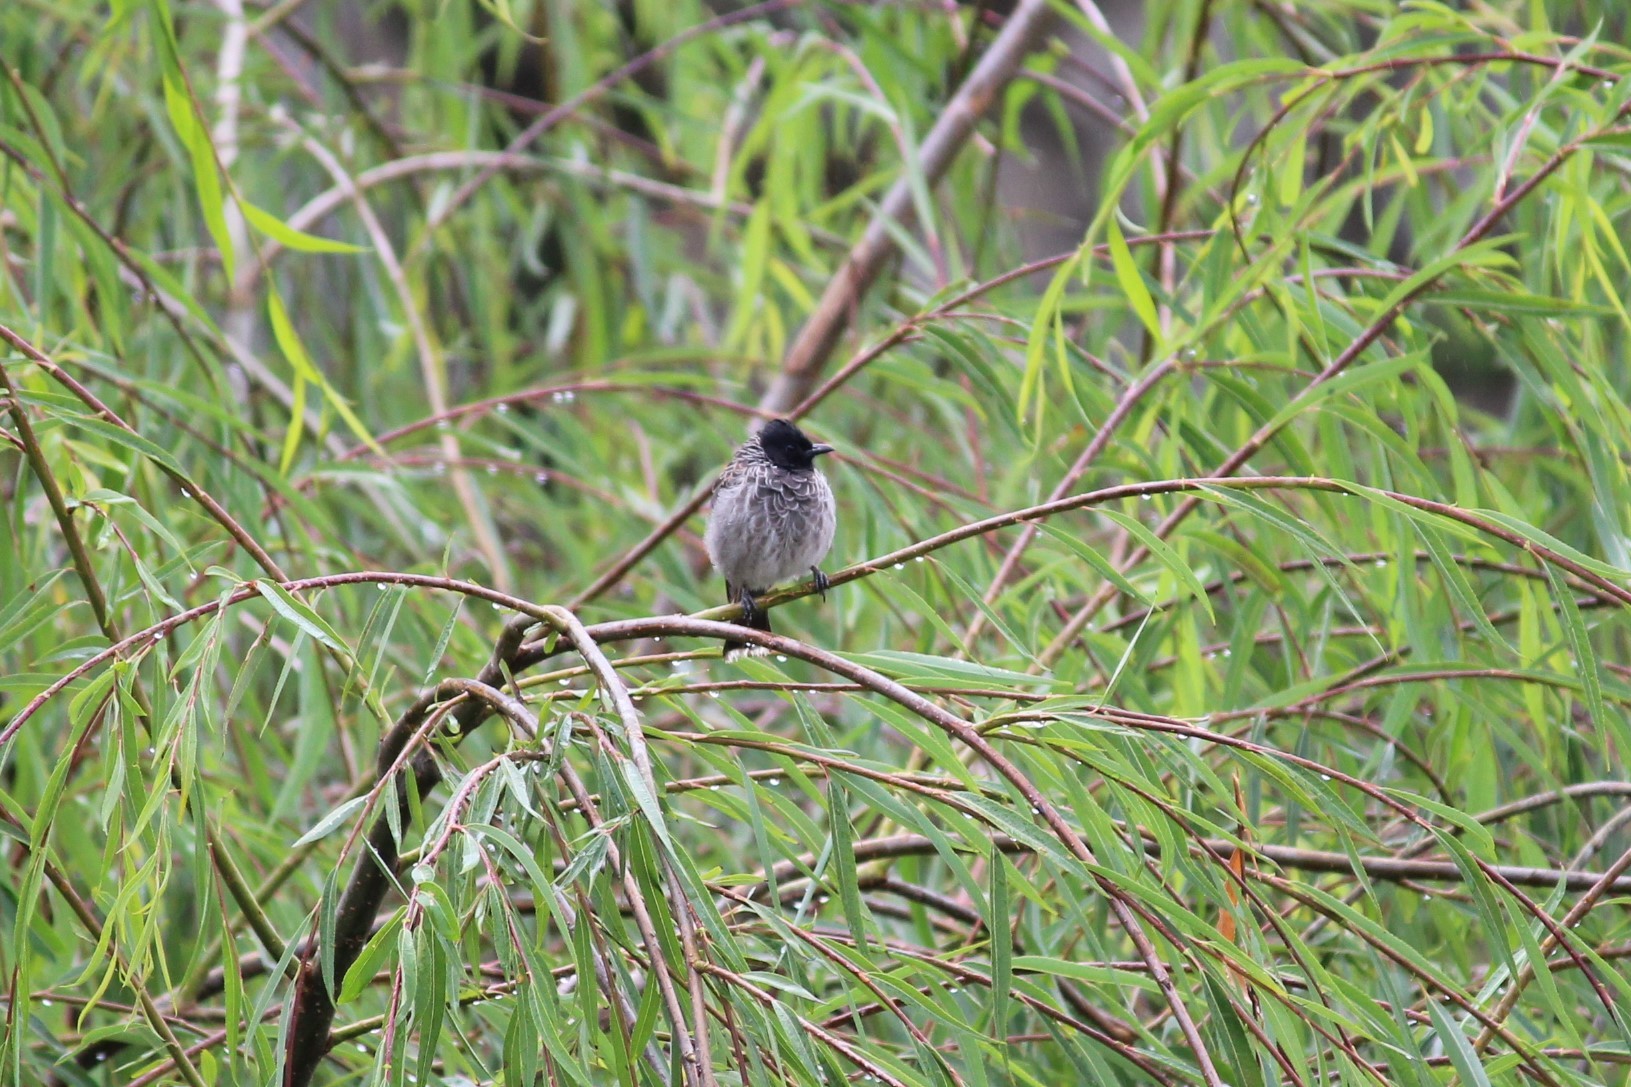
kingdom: Animalia
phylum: Chordata
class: Aves
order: Passeriformes
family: Pycnonotidae
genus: Pycnonotus
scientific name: Pycnonotus cafer
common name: Red-vented bulbul
